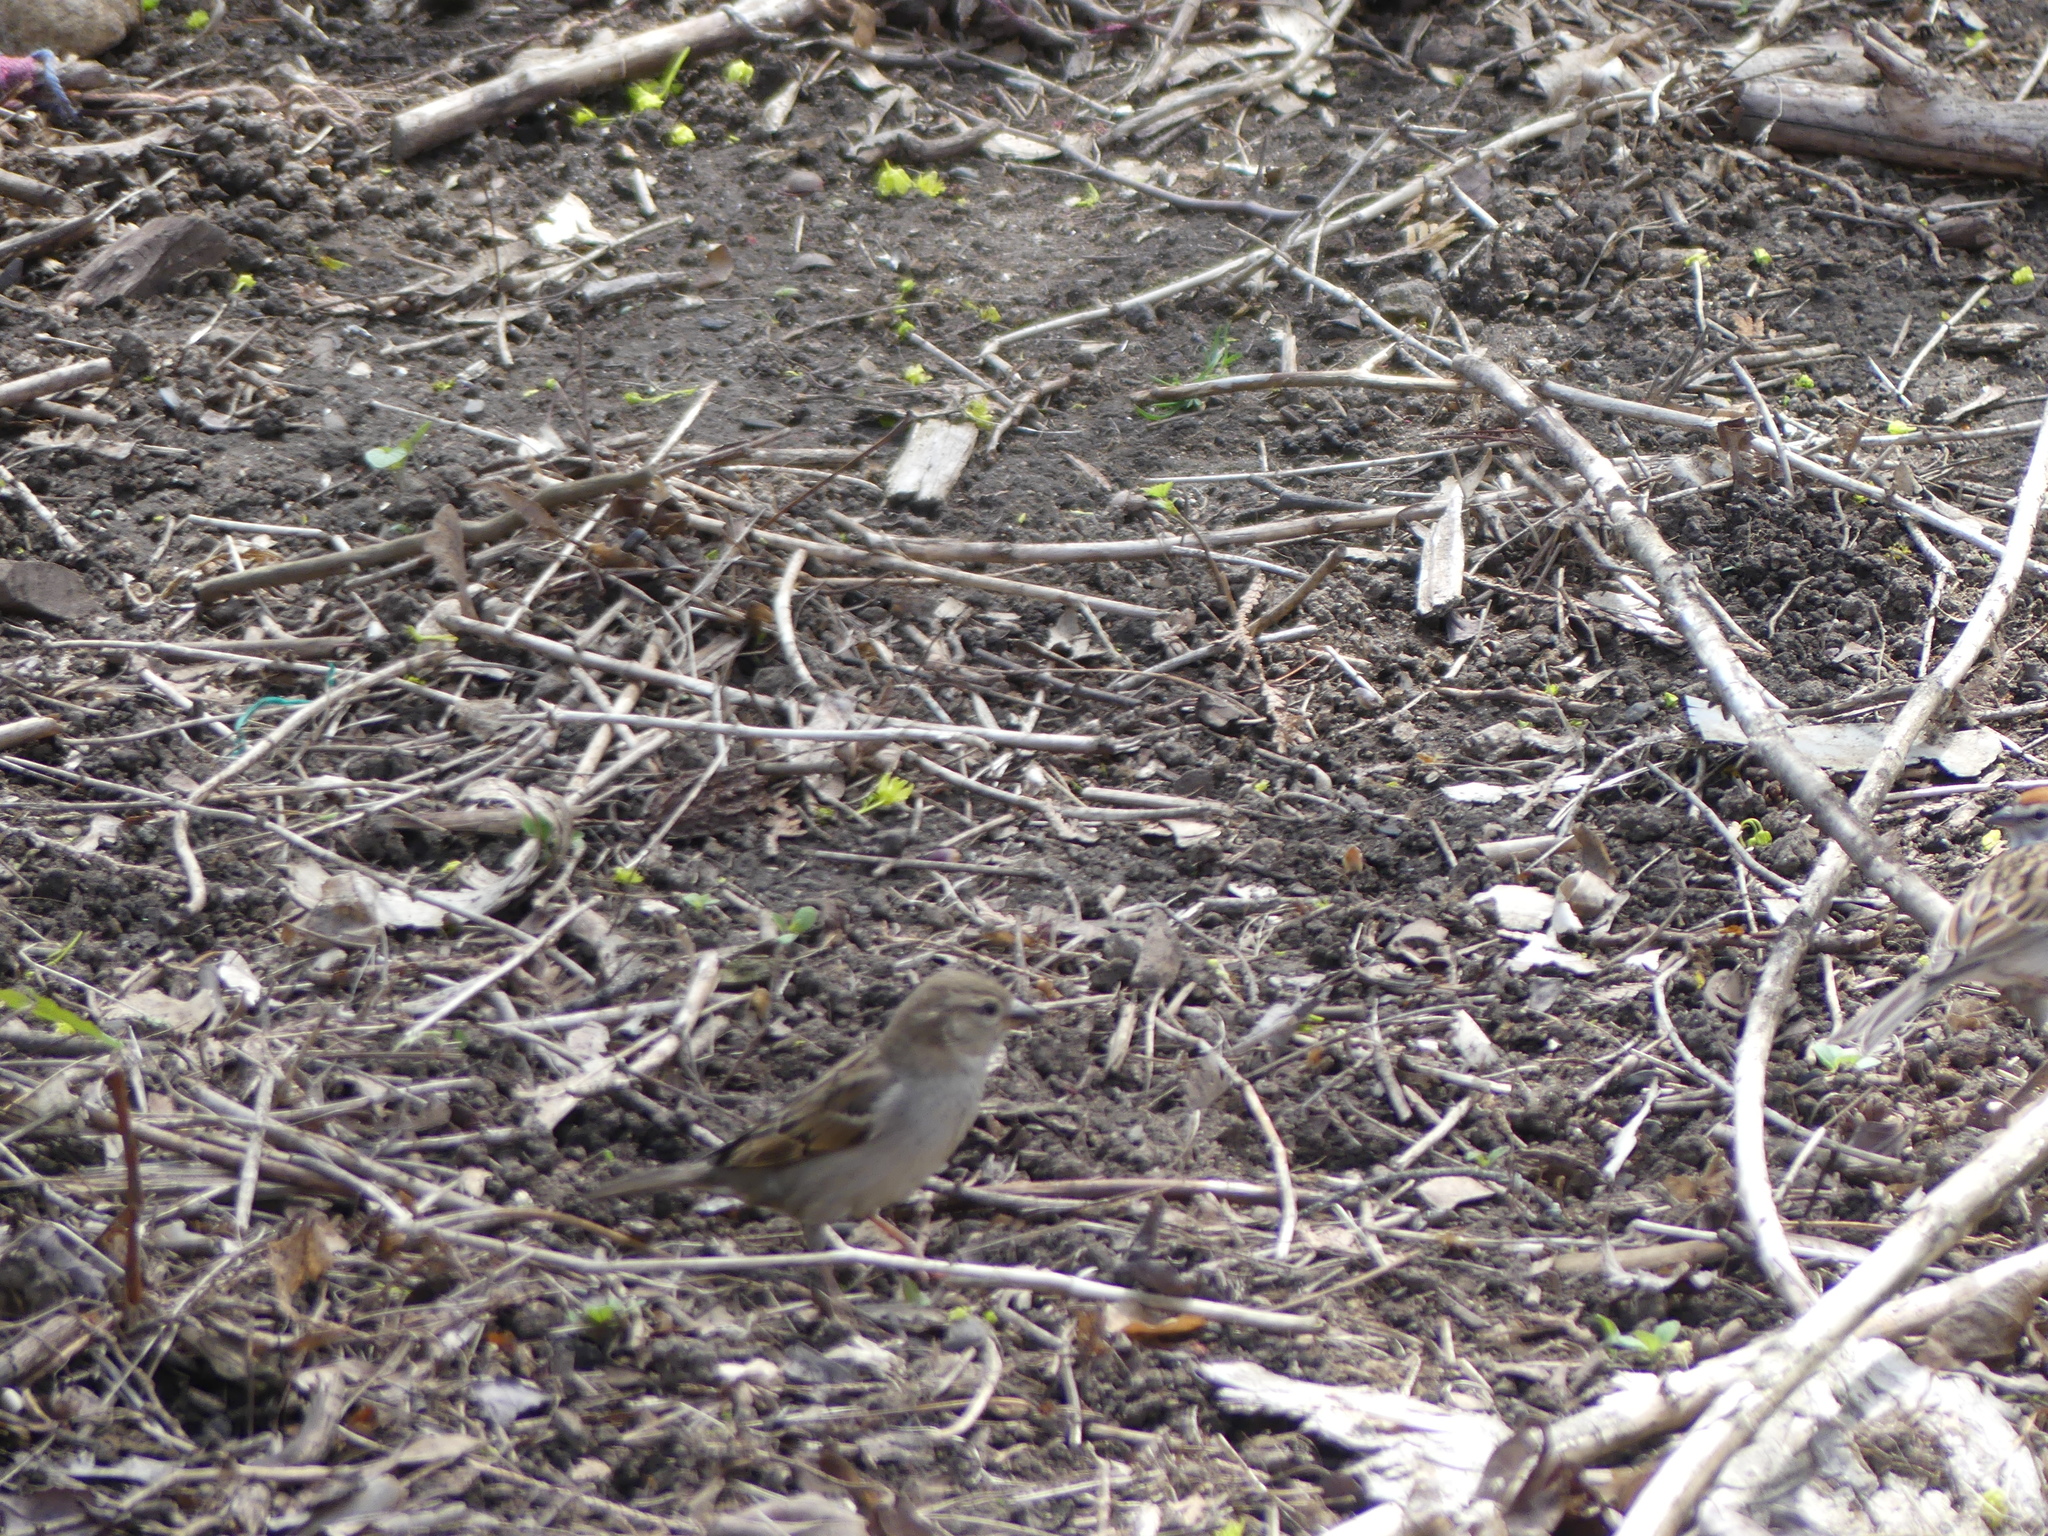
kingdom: Animalia
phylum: Chordata
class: Aves
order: Passeriformes
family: Passeridae
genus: Passer
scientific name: Passer domesticus
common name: House sparrow
